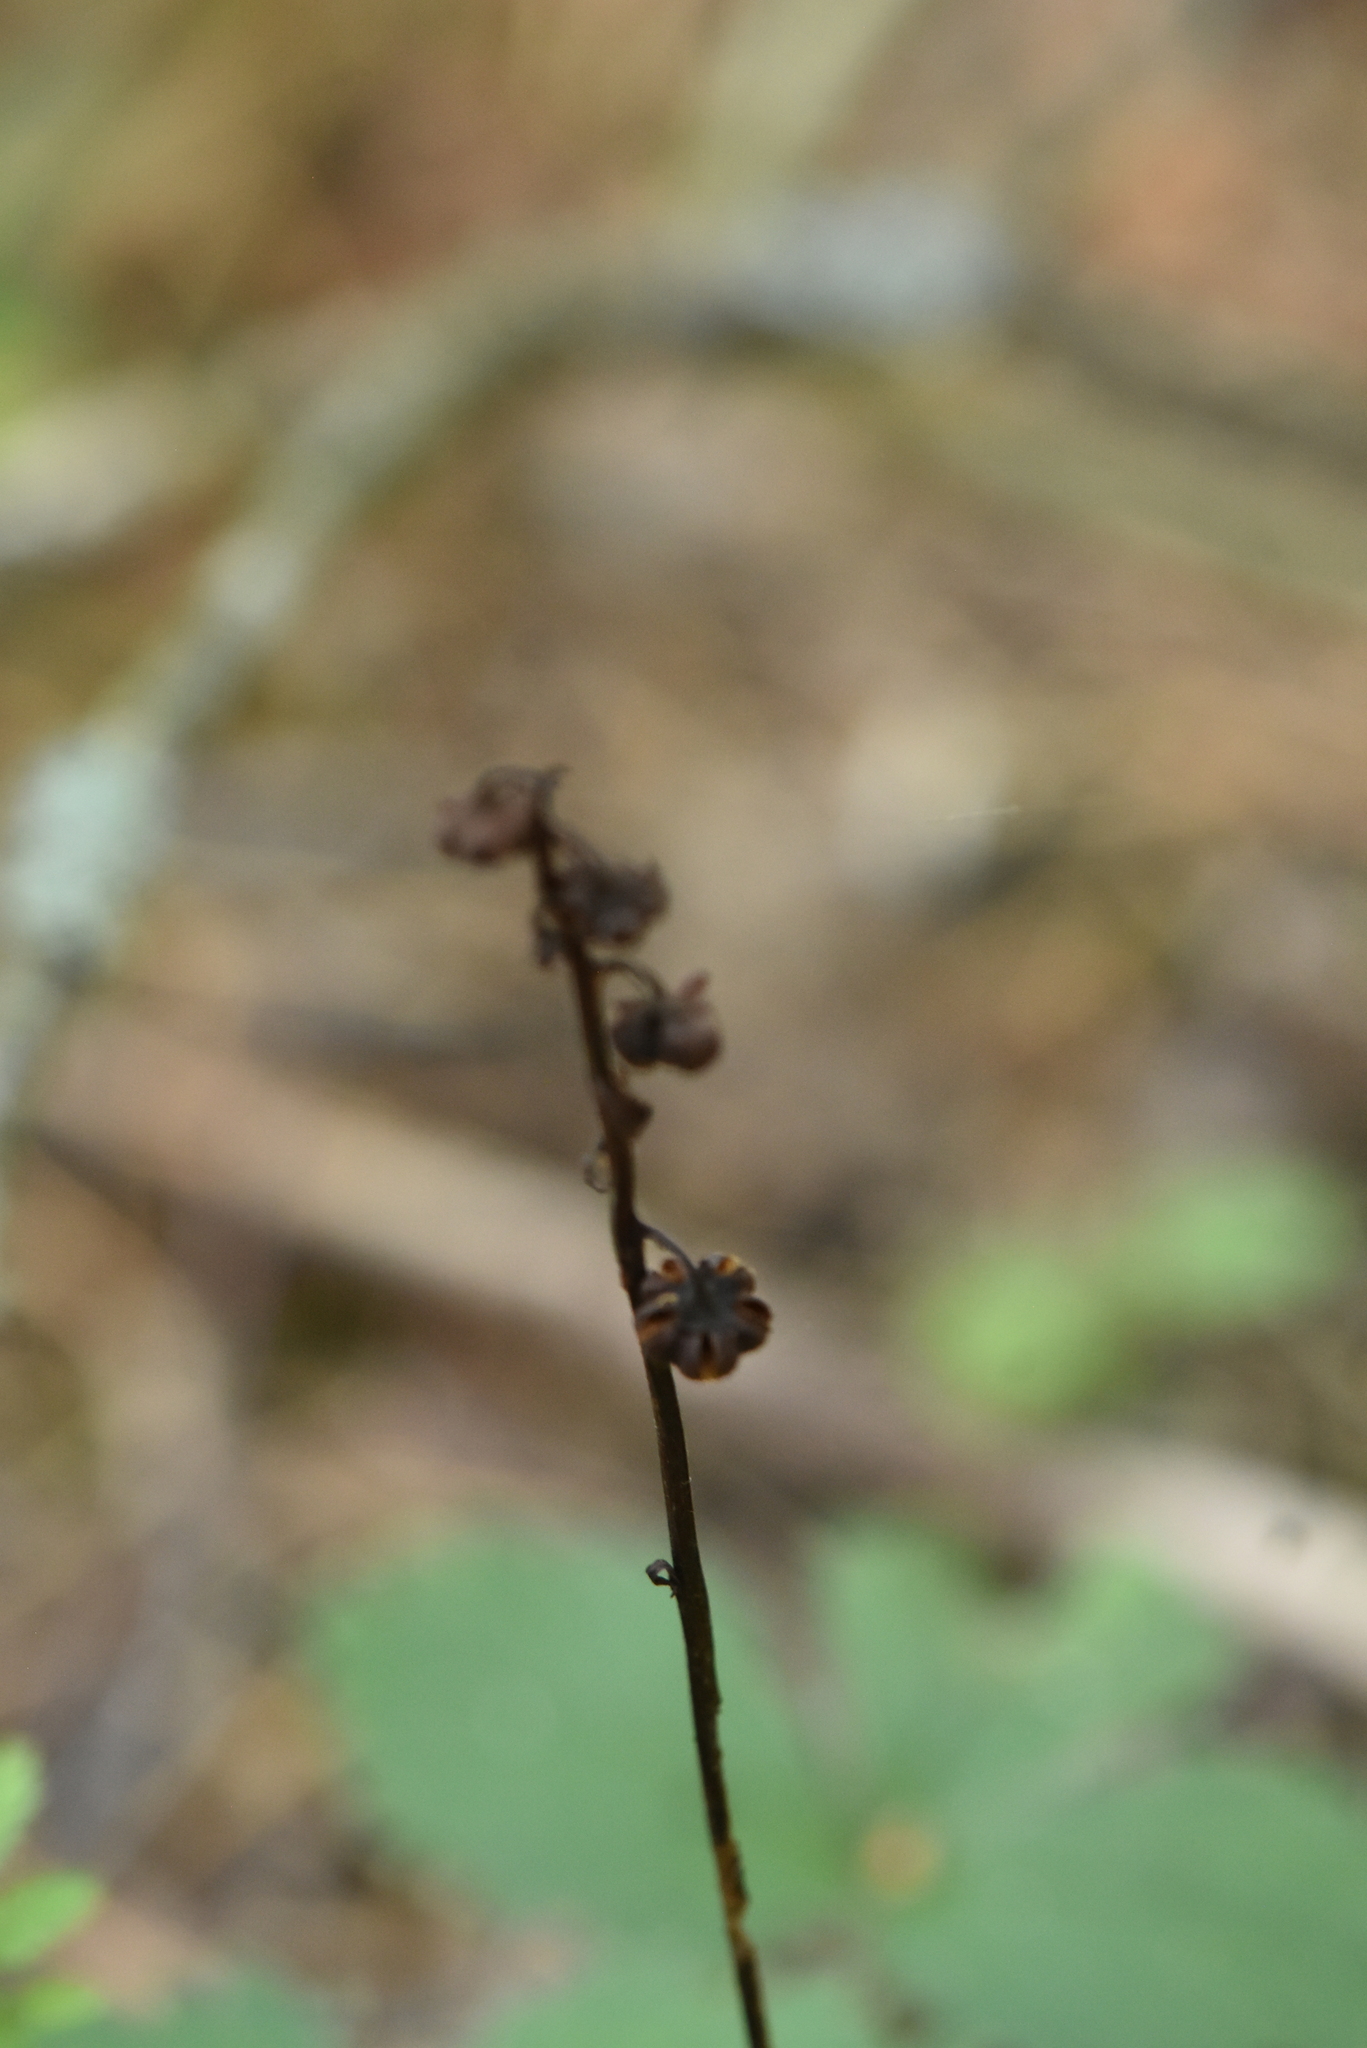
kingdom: Plantae
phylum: Tracheophyta
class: Magnoliopsida
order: Ericales
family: Ericaceae
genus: Pyrola
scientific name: Pyrola minor
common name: Common wintergreen
